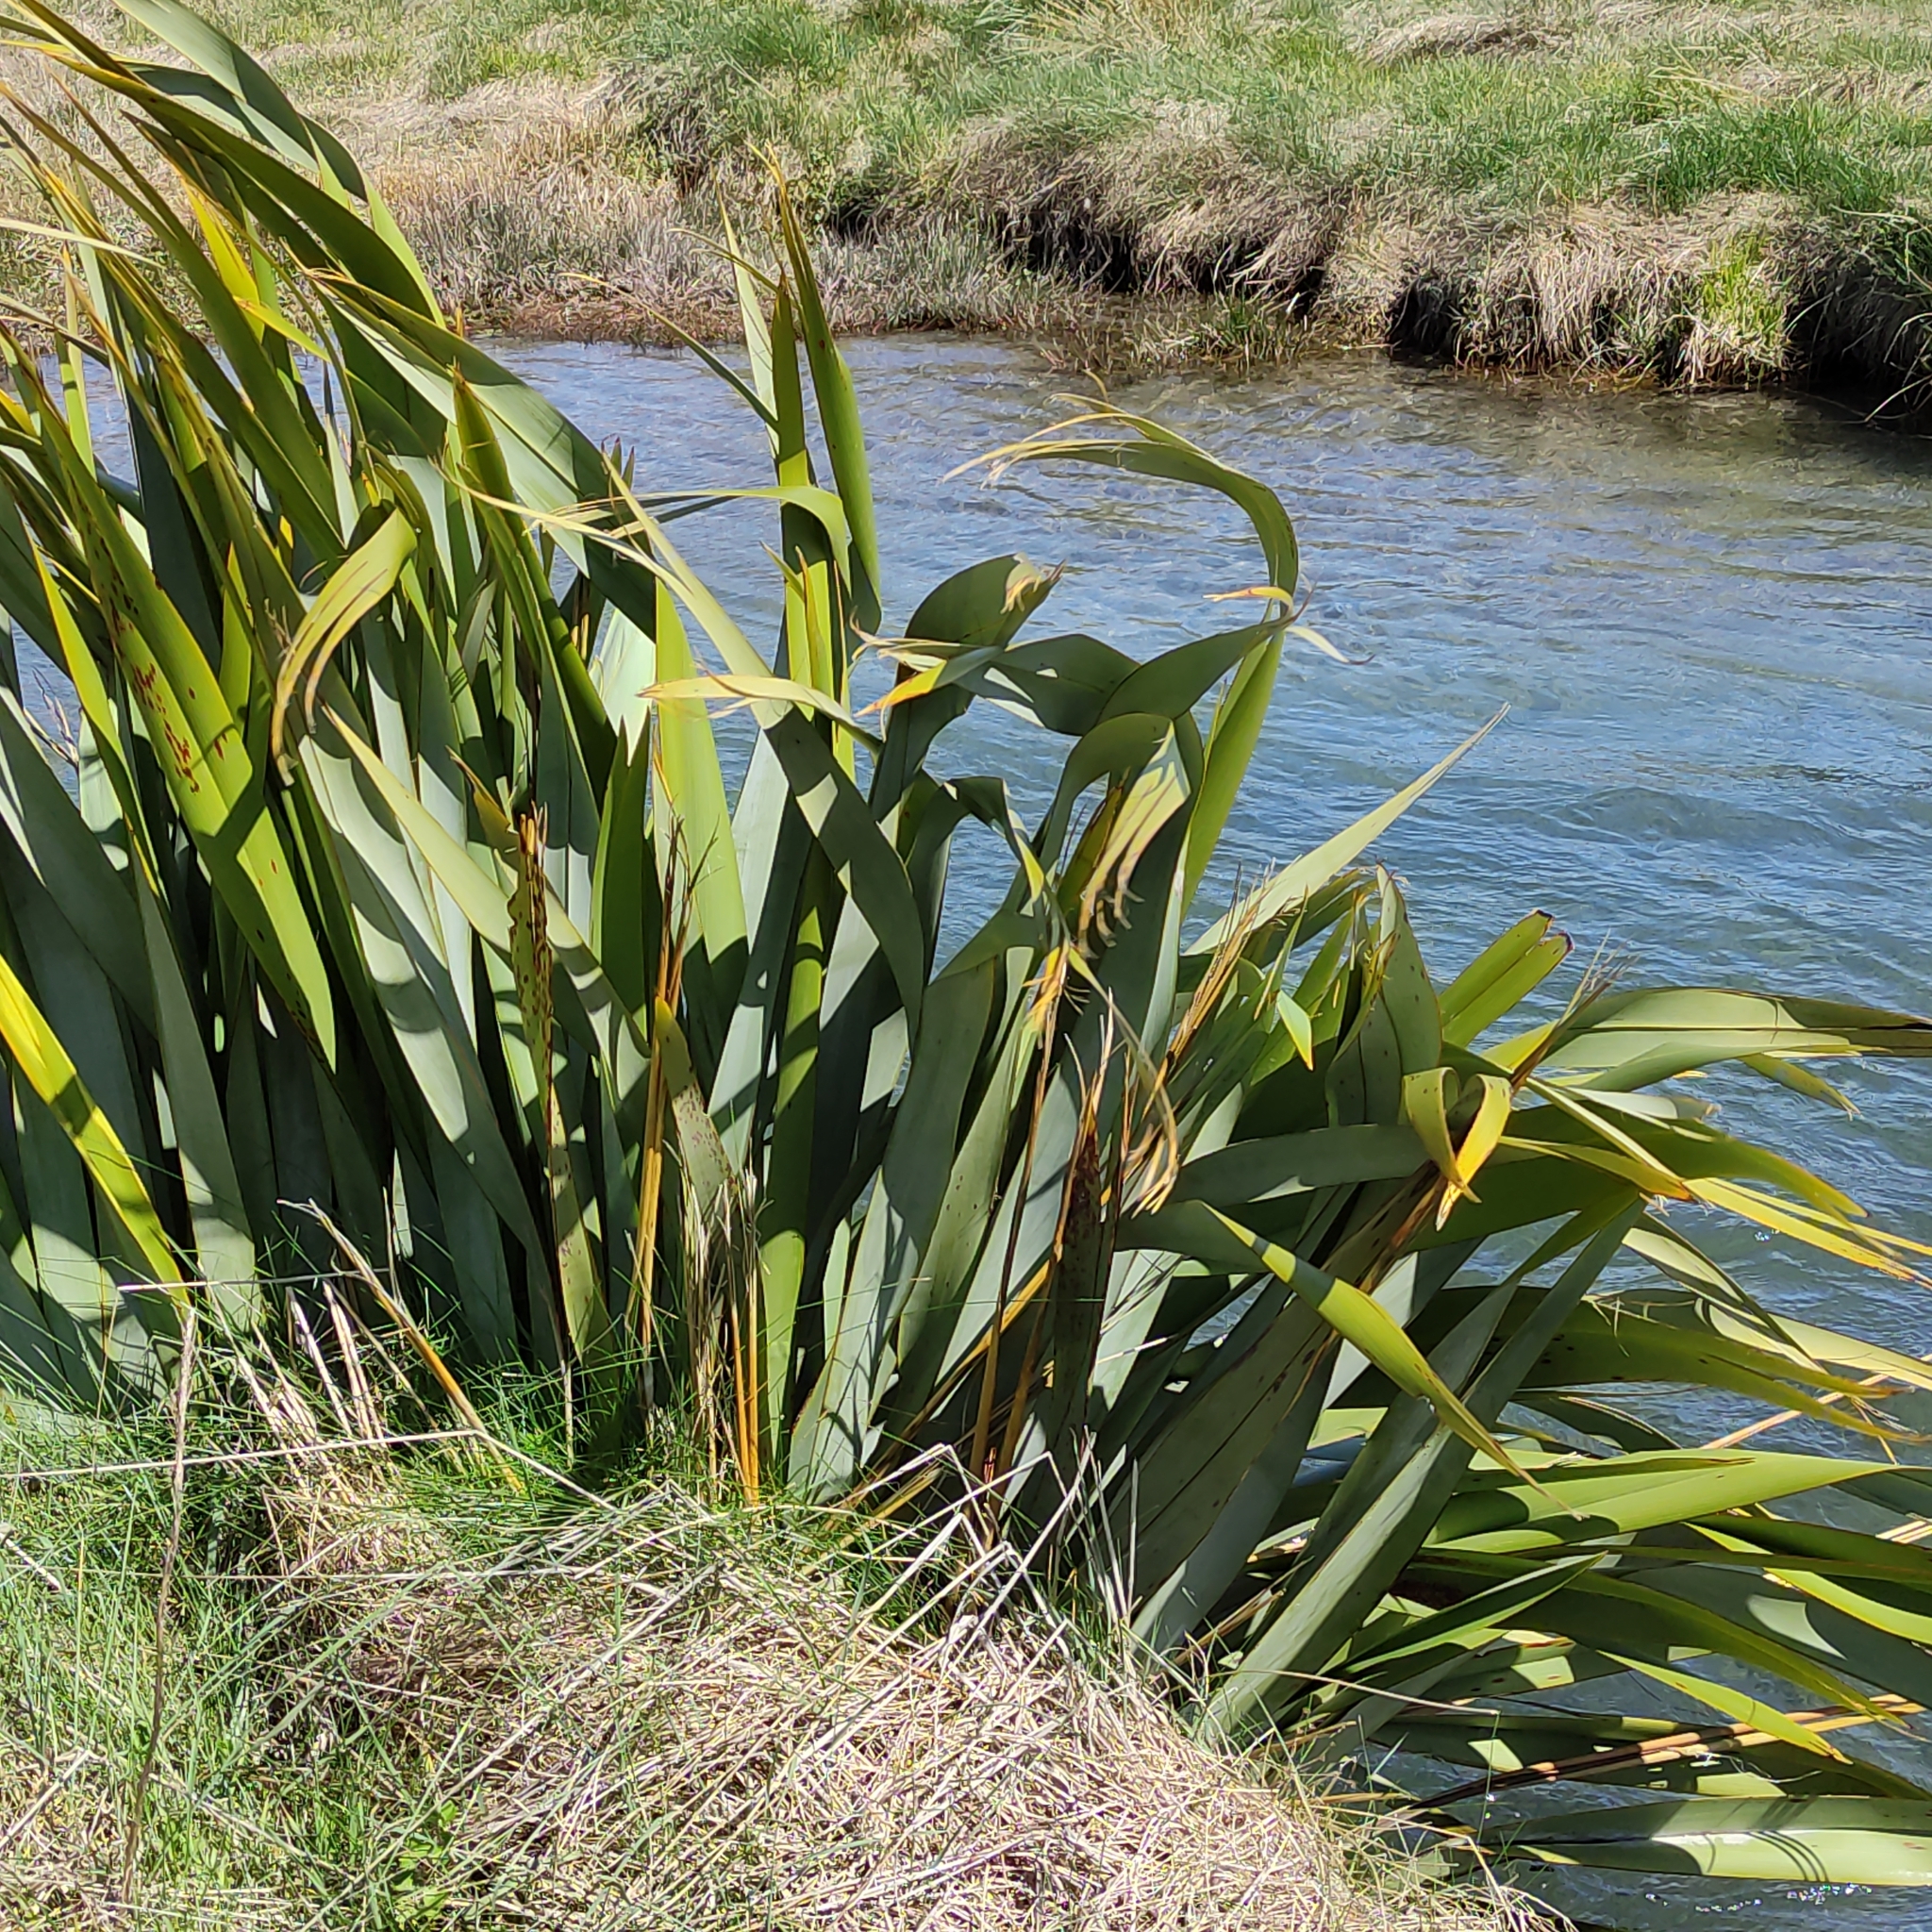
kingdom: Plantae
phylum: Tracheophyta
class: Liliopsida
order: Asparagales
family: Asphodelaceae
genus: Phormium
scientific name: Phormium tenax
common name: New zealand flax
